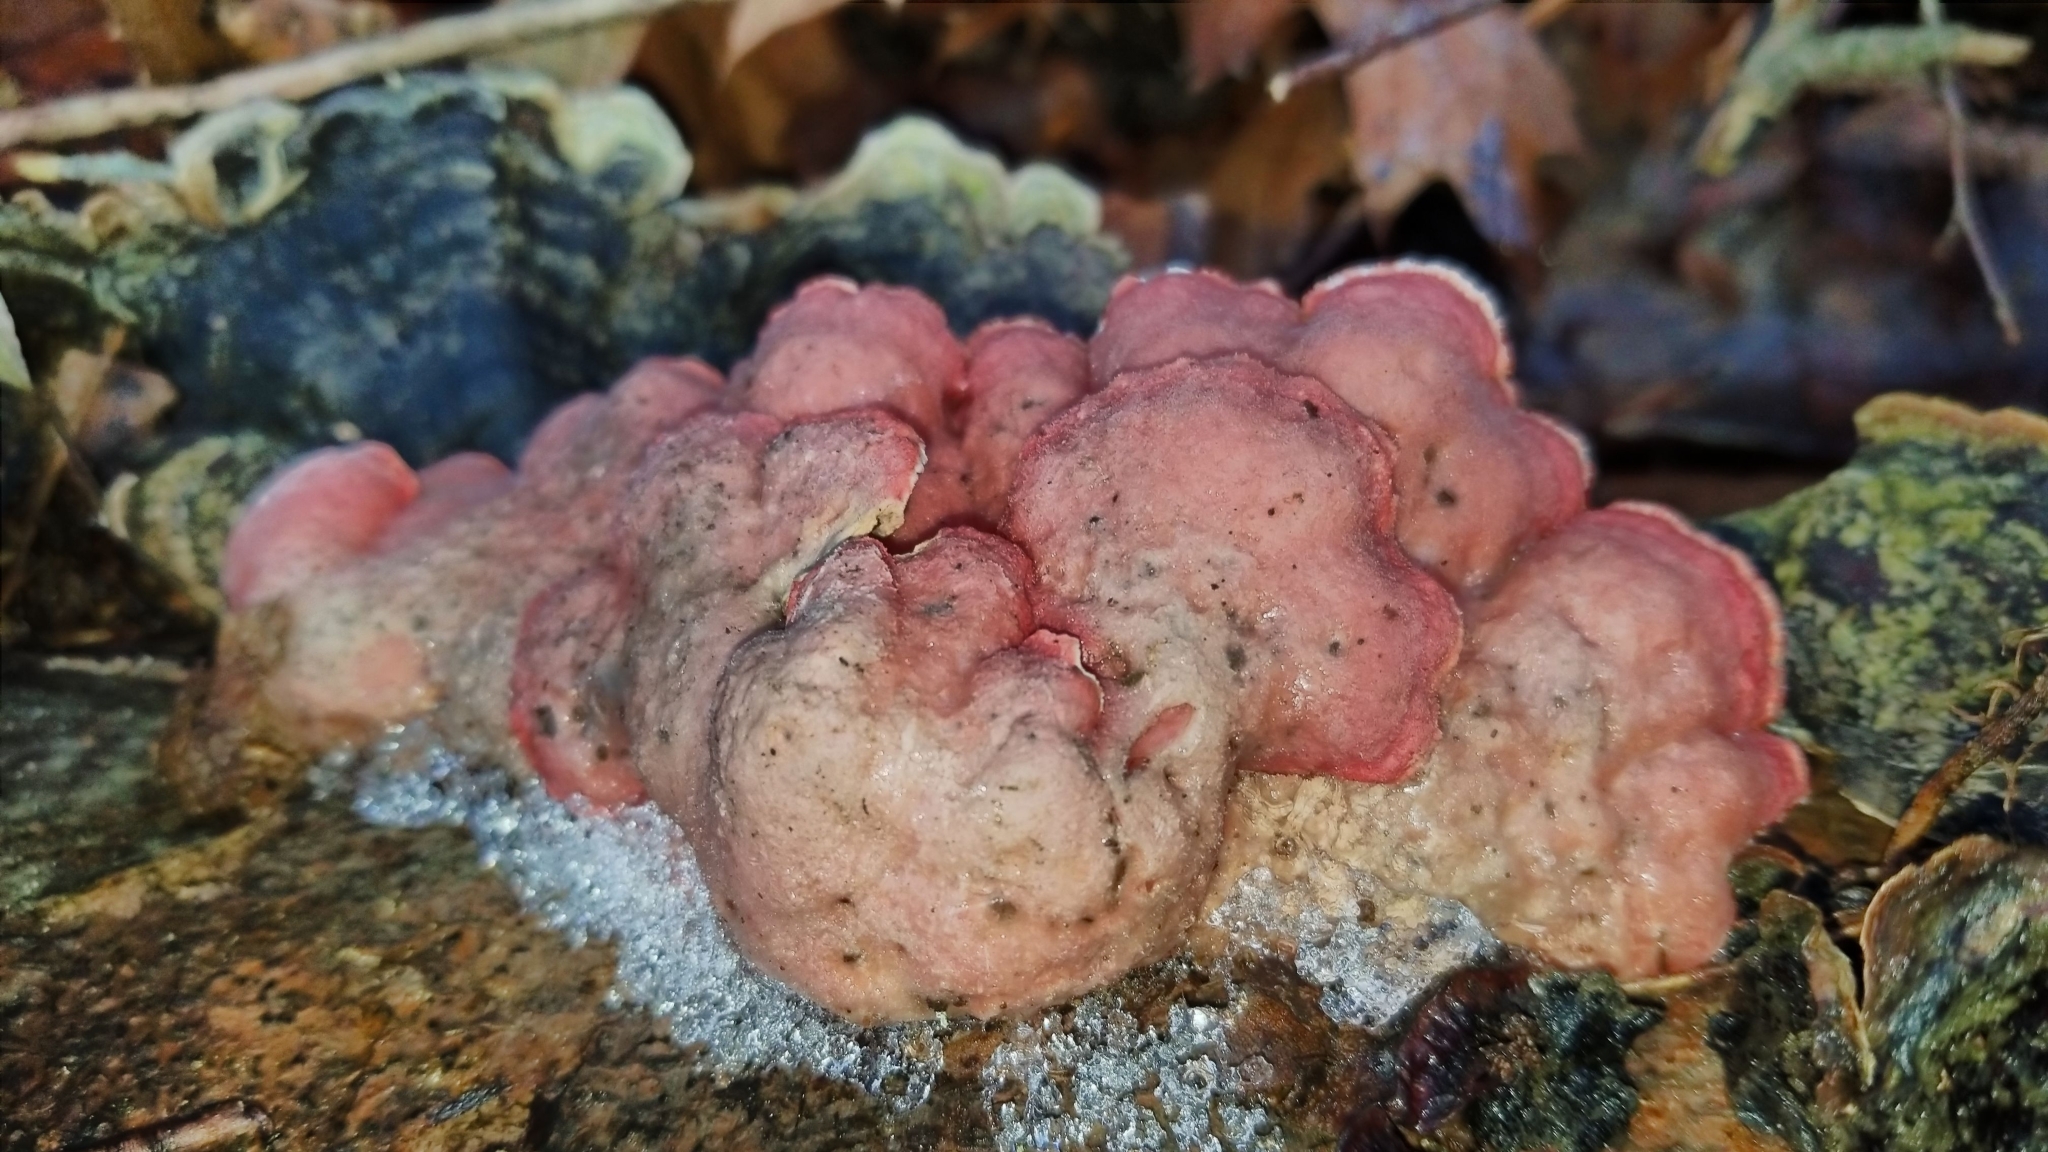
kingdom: Fungi
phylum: Basidiomycota
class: Agaricomycetes
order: Polyporales
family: Irpicaceae
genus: Byssomerulius
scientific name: Byssomerulius incarnatus
